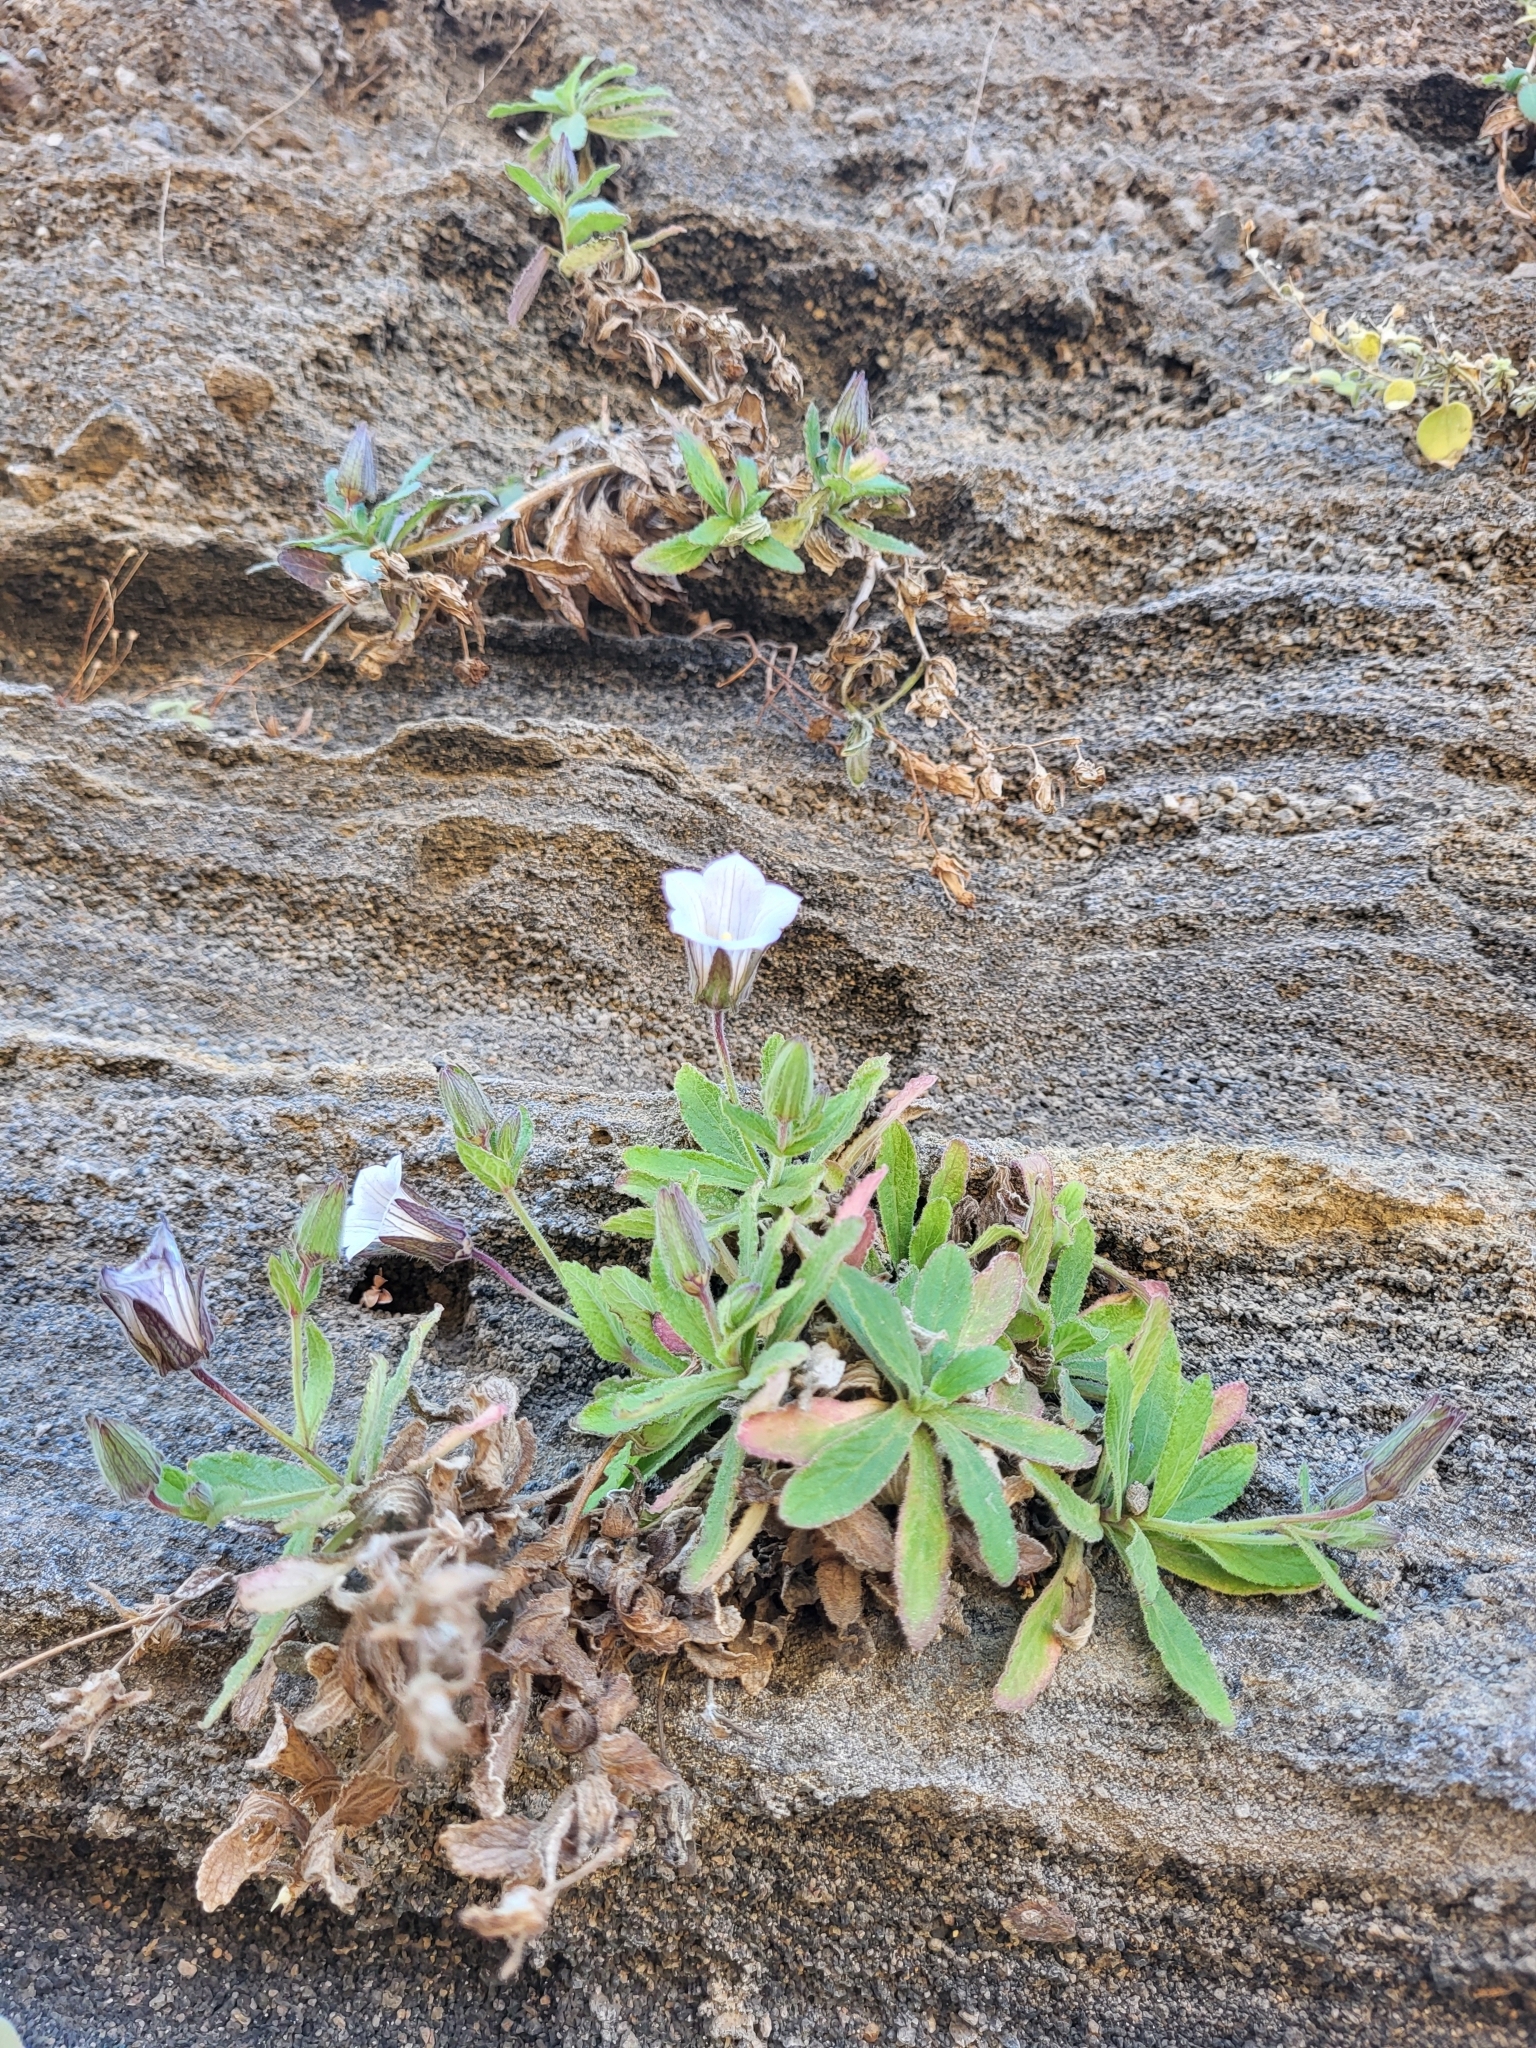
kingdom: Plantae
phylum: Tracheophyta
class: Magnoliopsida
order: Asterales
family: Campanulaceae
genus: Campanula
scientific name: Campanula feijoana
